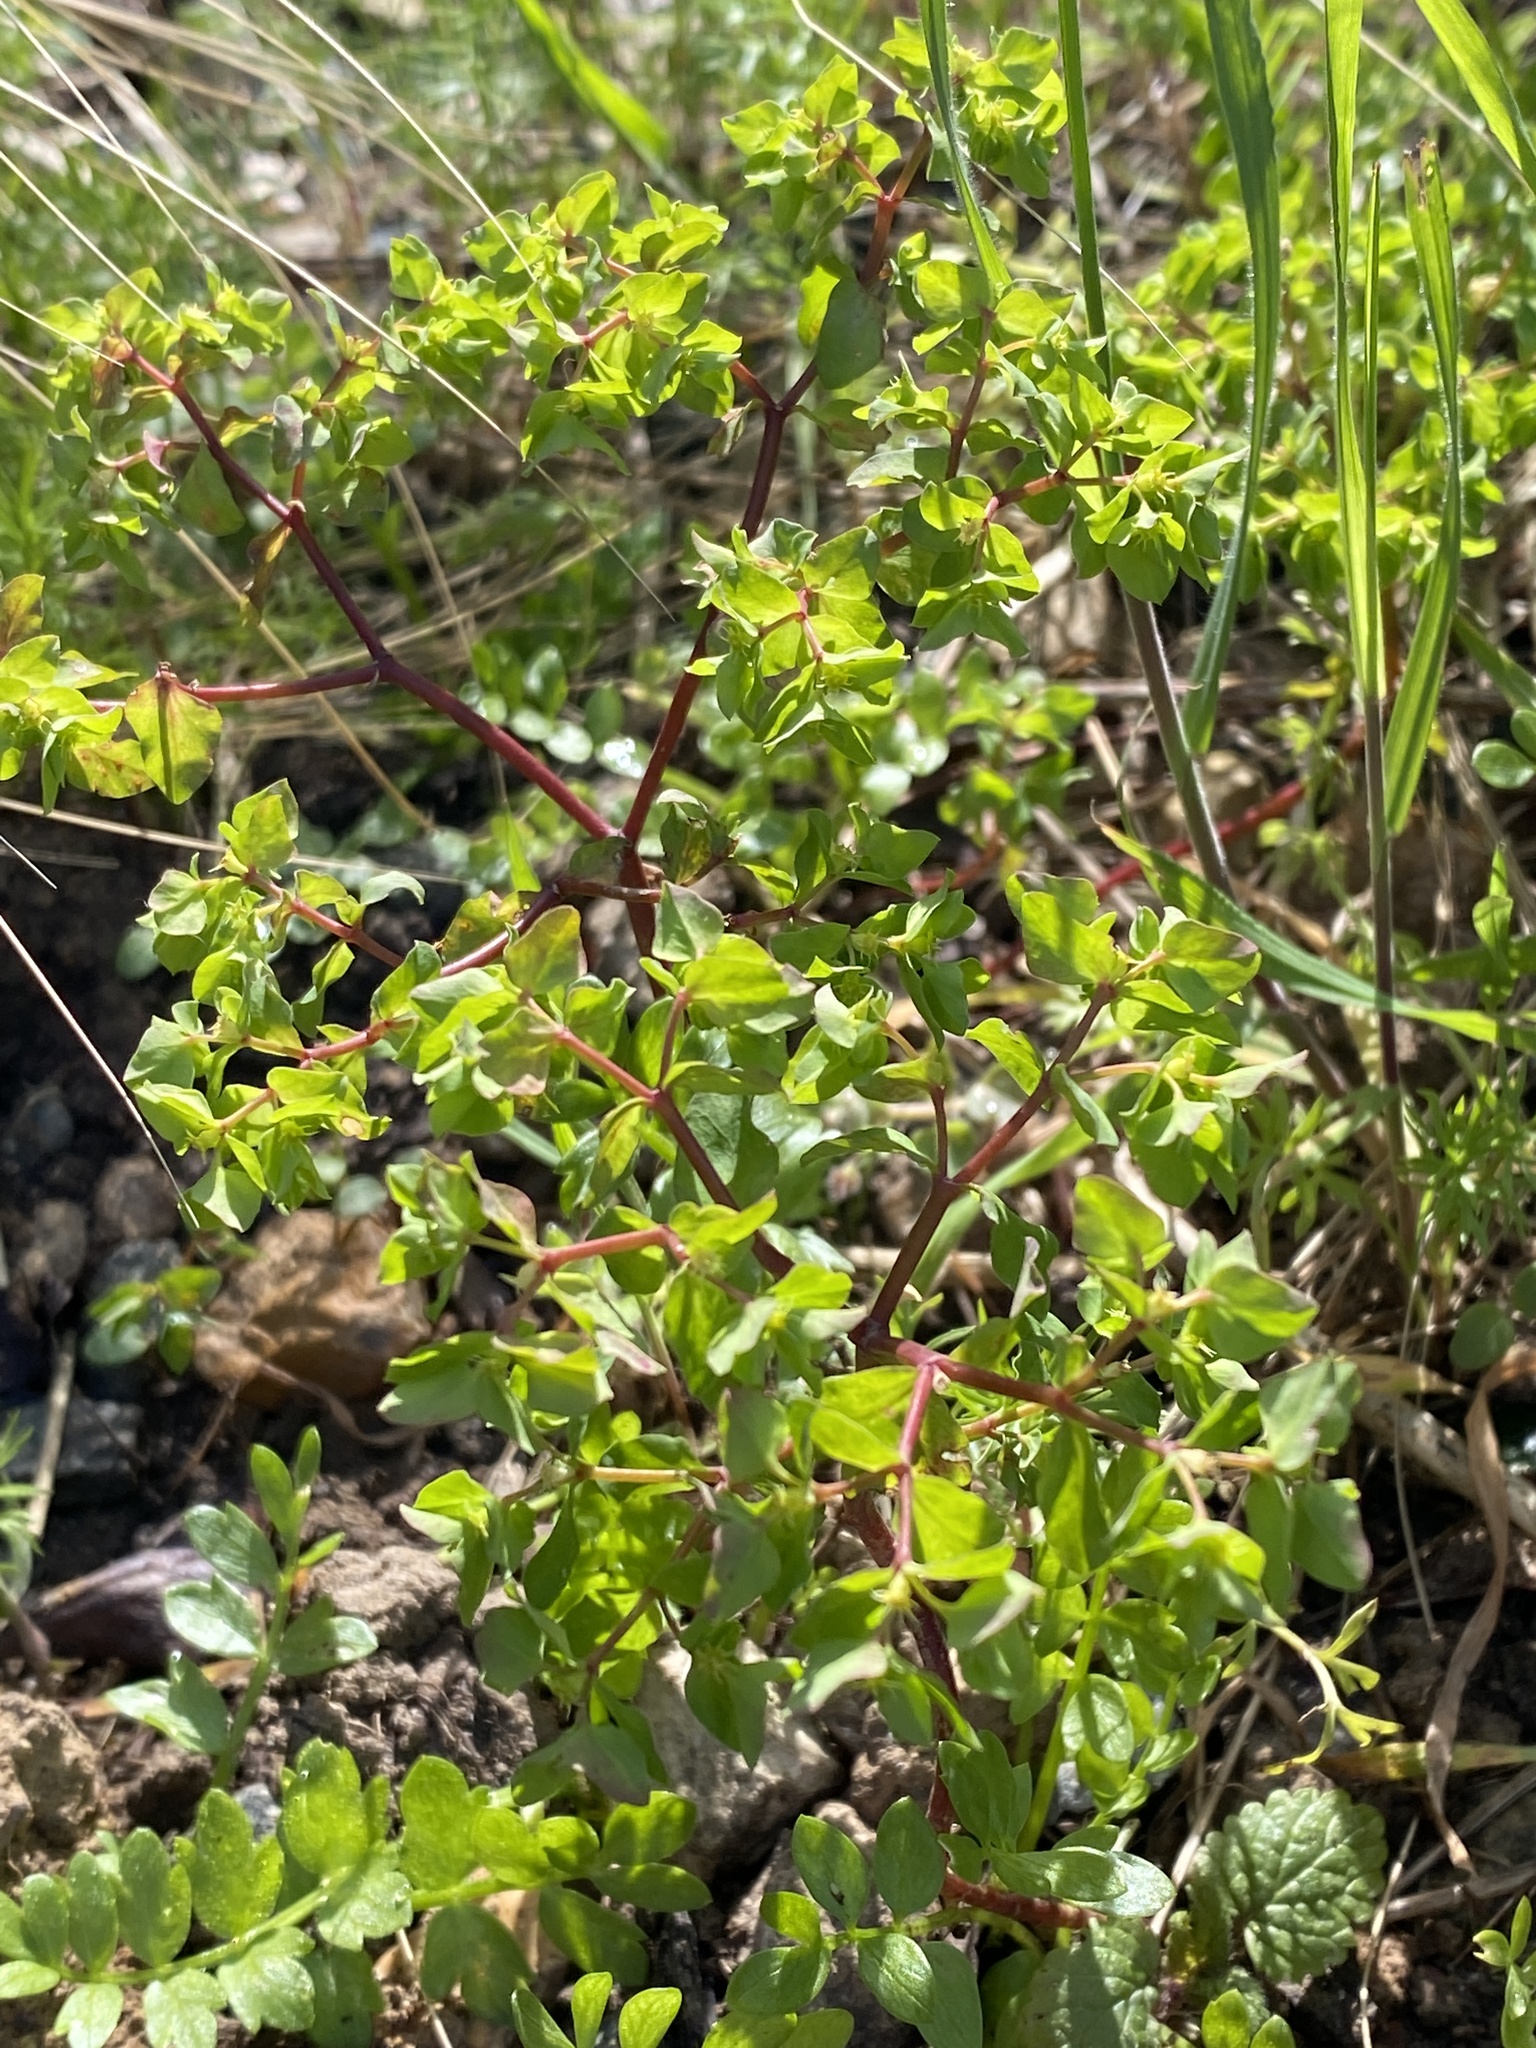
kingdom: Plantae
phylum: Tracheophyta
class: Magnoliopsida
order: Malpighiales
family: Euphorbiaceae
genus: Euphorbia
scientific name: Euphorbia peplus
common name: Petty spurge
